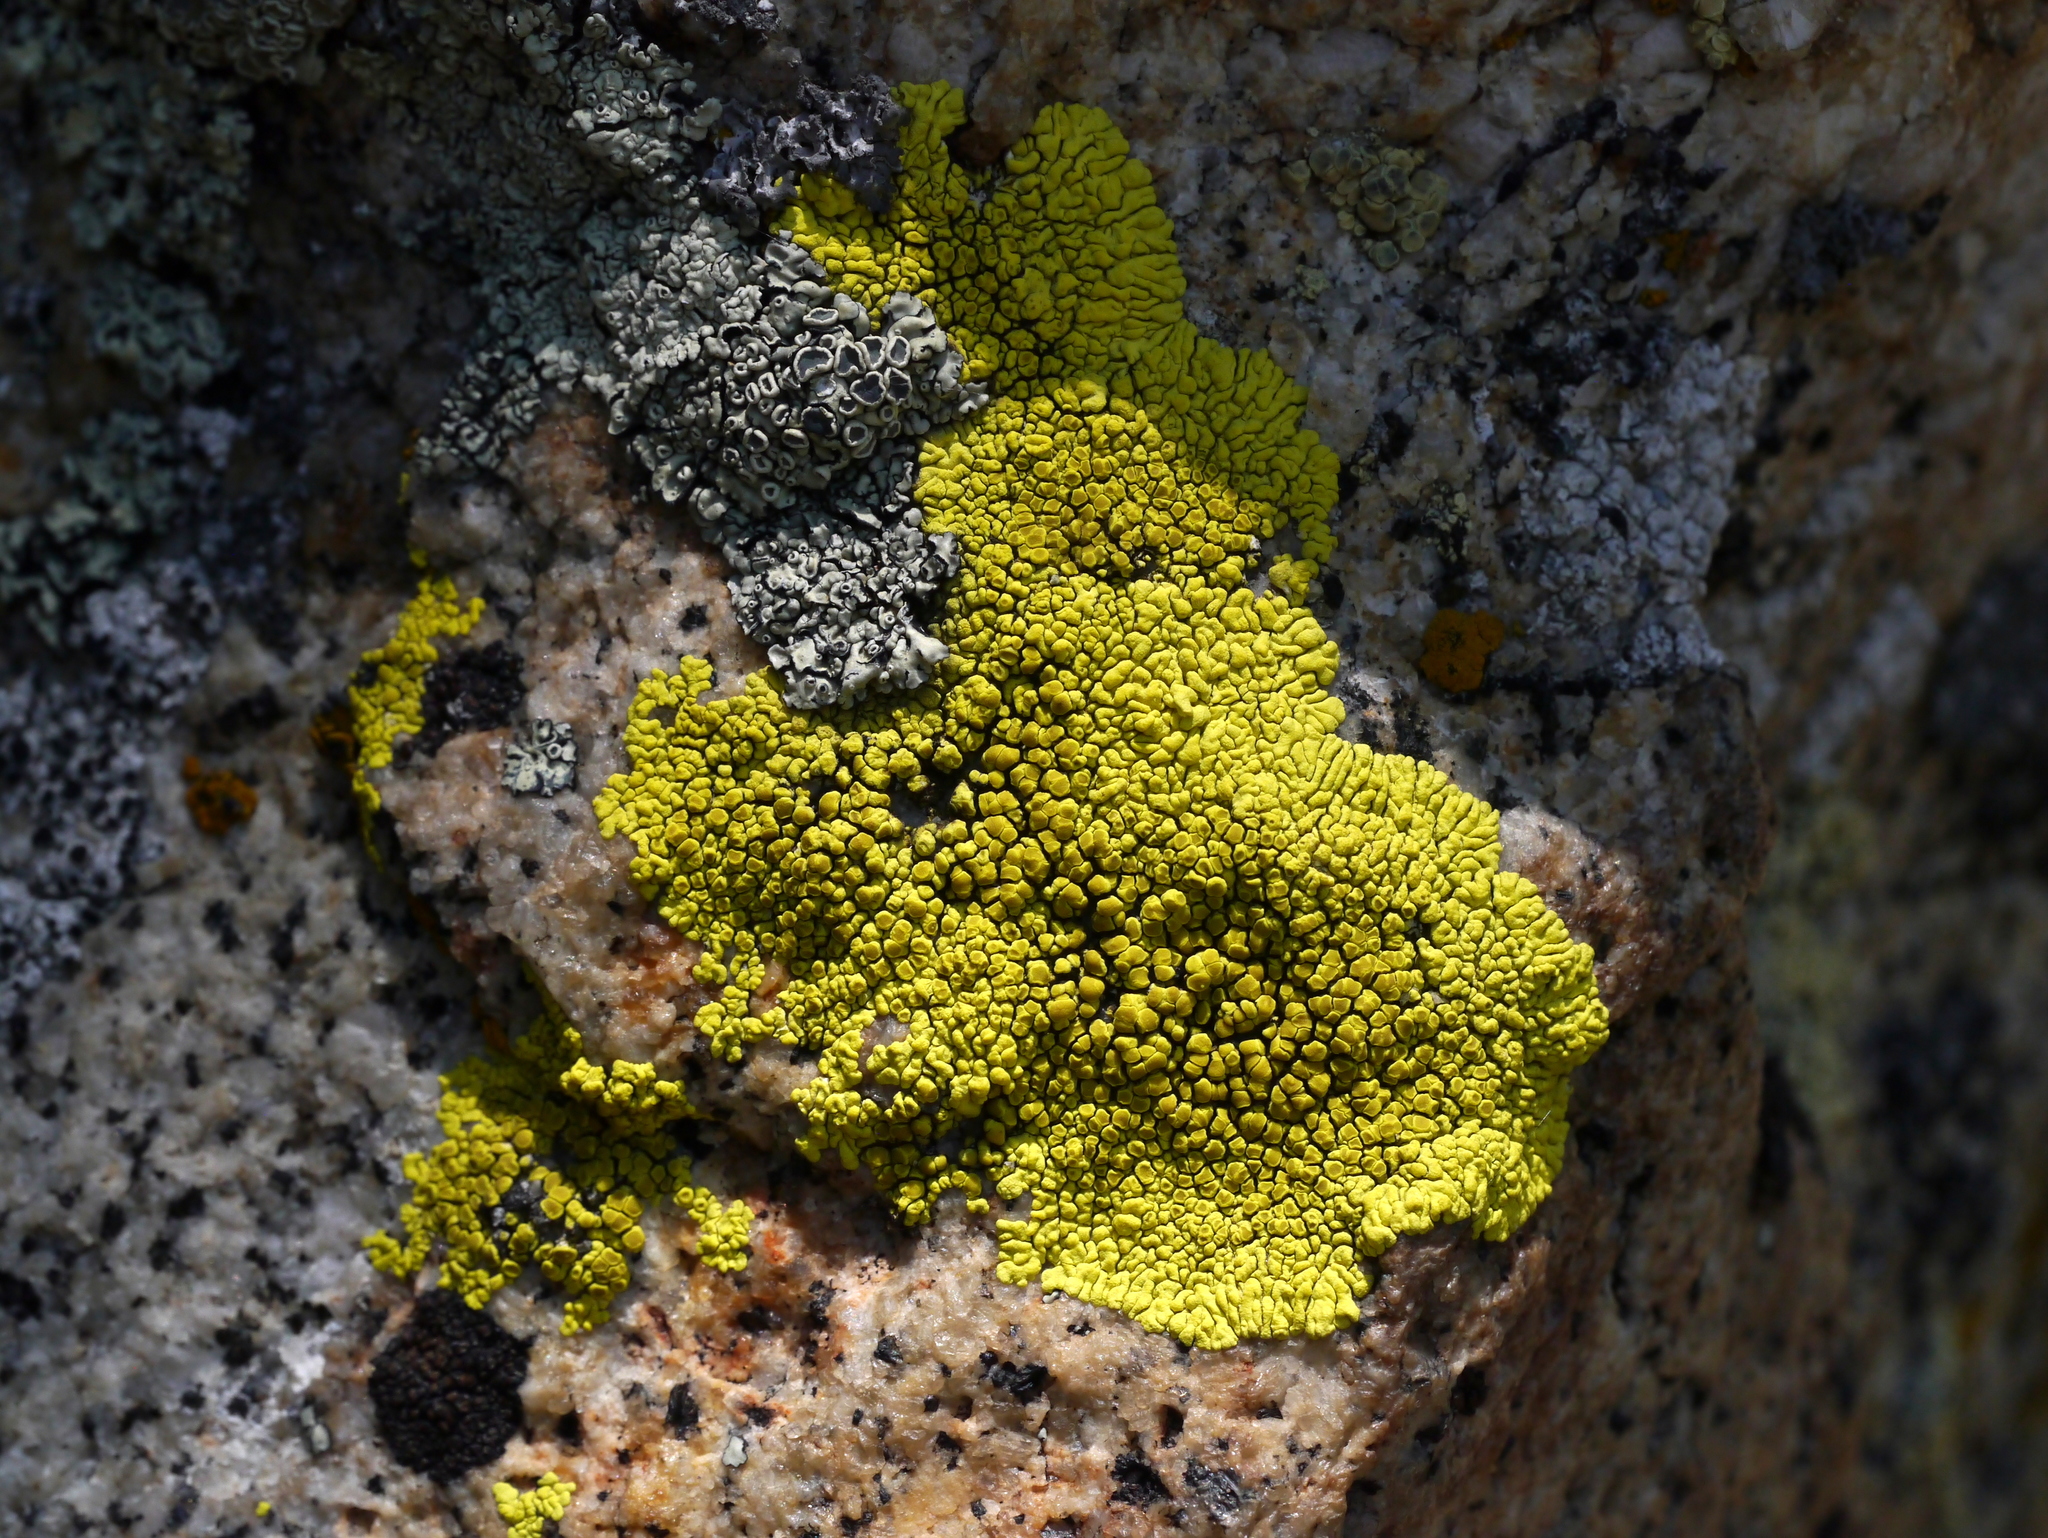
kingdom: Fungi
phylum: Ascomycota
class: Lecanoromycetes
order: Acarosporales
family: Acarosporaceae
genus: Pleopsidium
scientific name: Pleopsidium oxytonum
